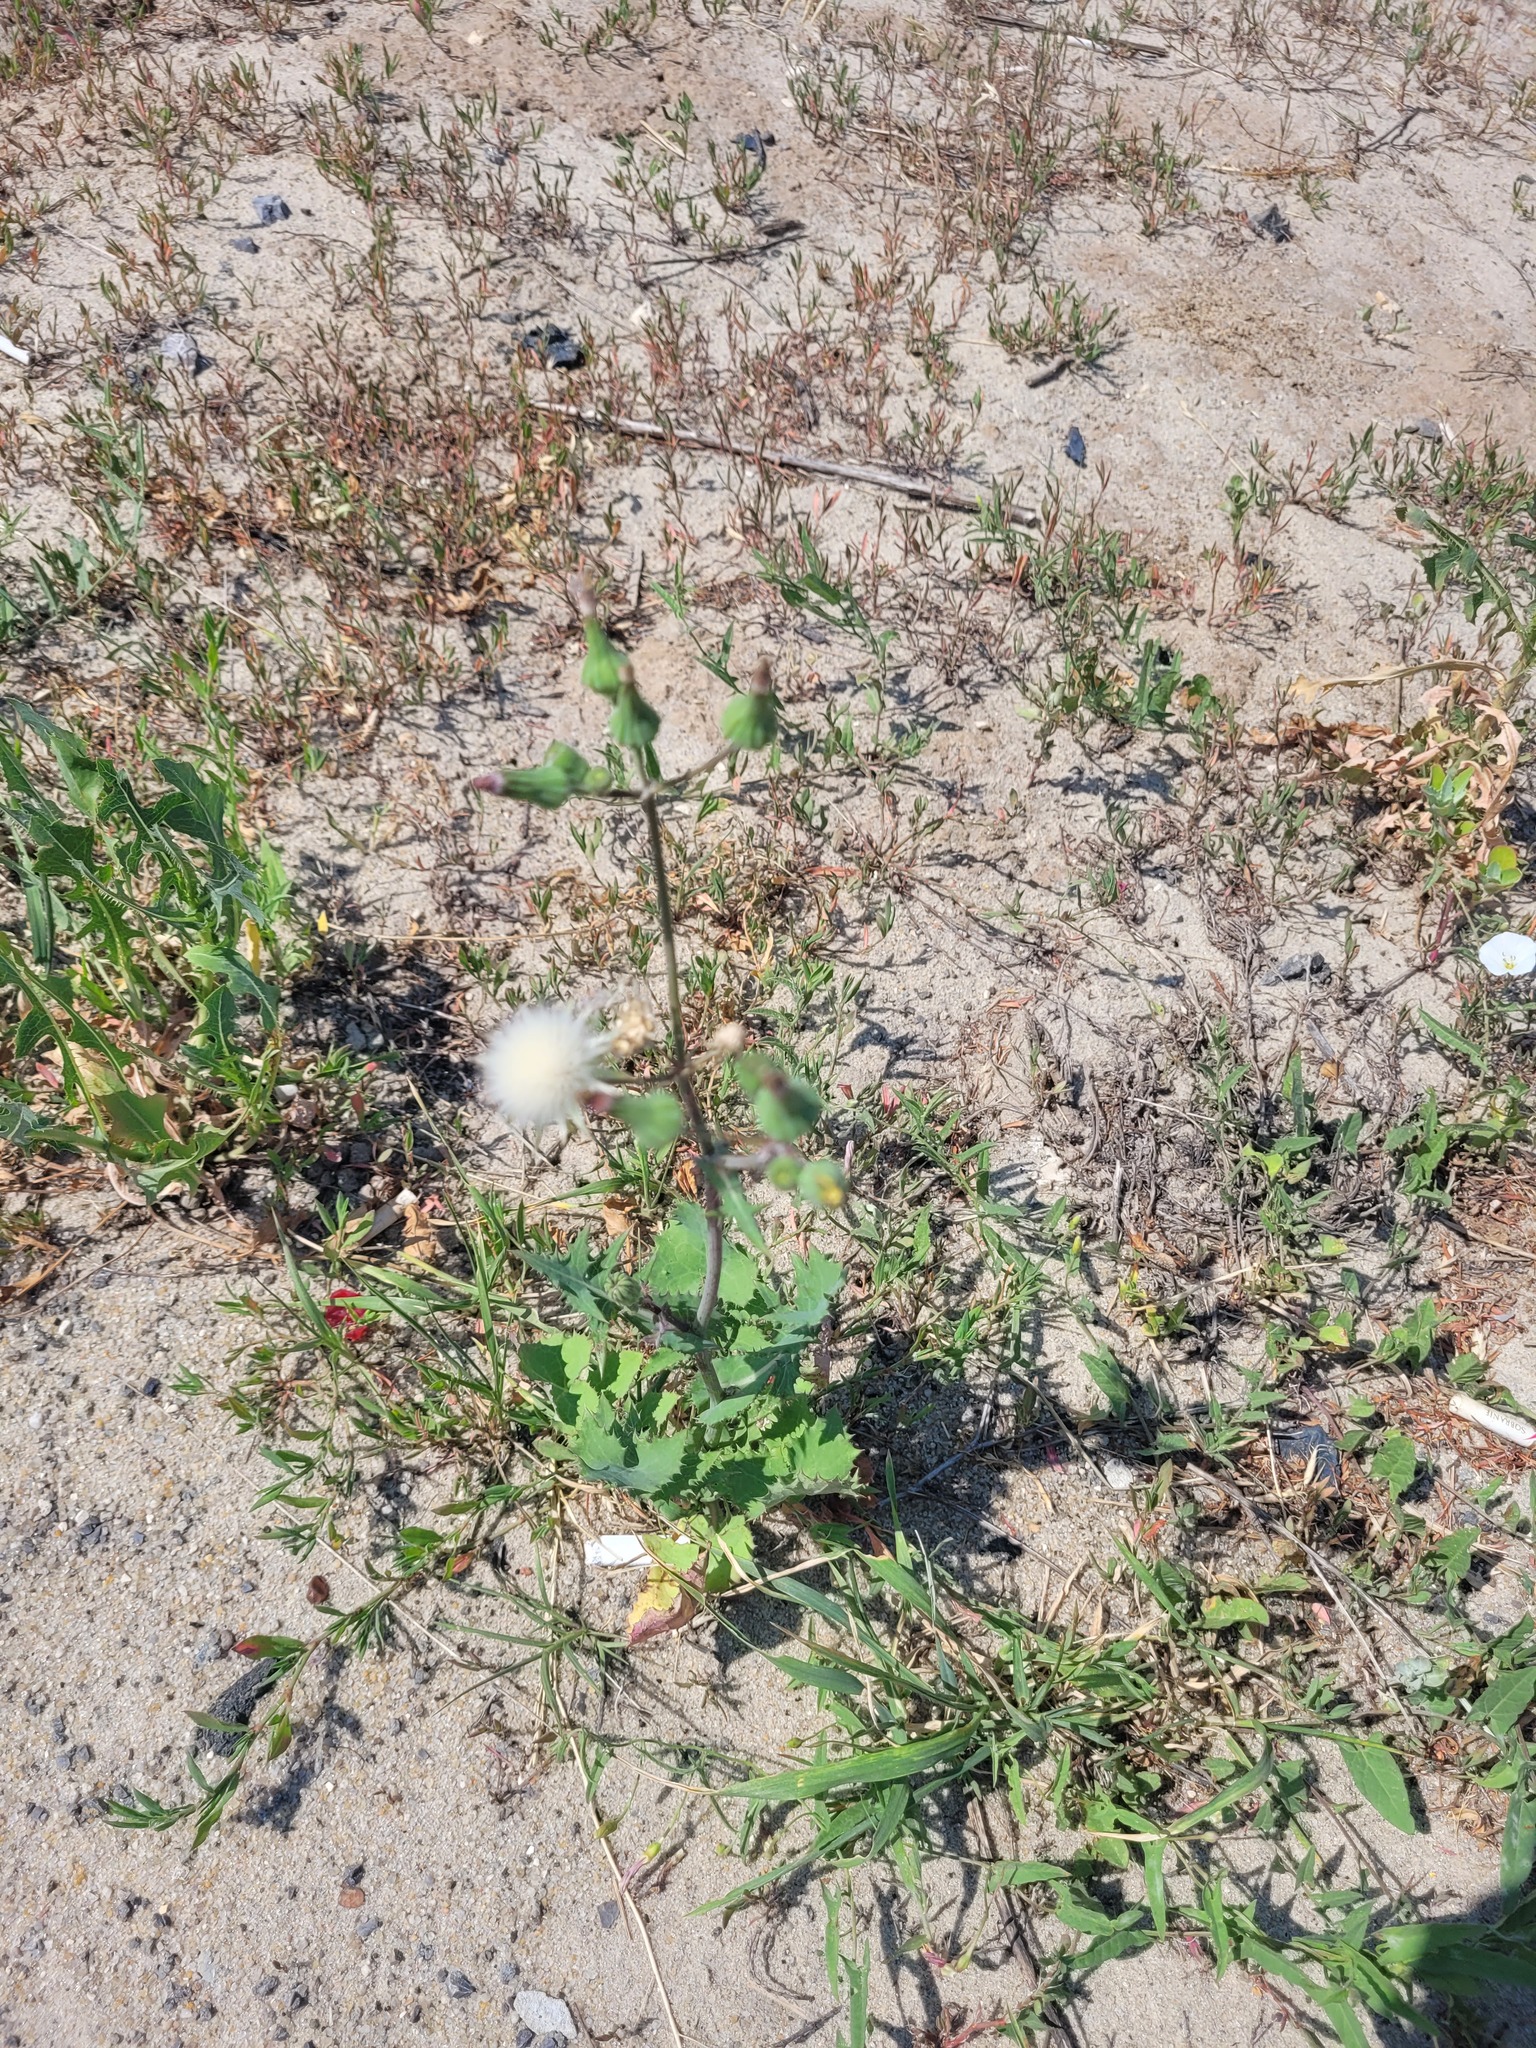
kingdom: Plantae
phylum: Tracheophyta
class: Magnoliopsida
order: Asterales
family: Asteraceae
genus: Sonchus
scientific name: Sonchus oleraceus
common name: Common sowthistle
